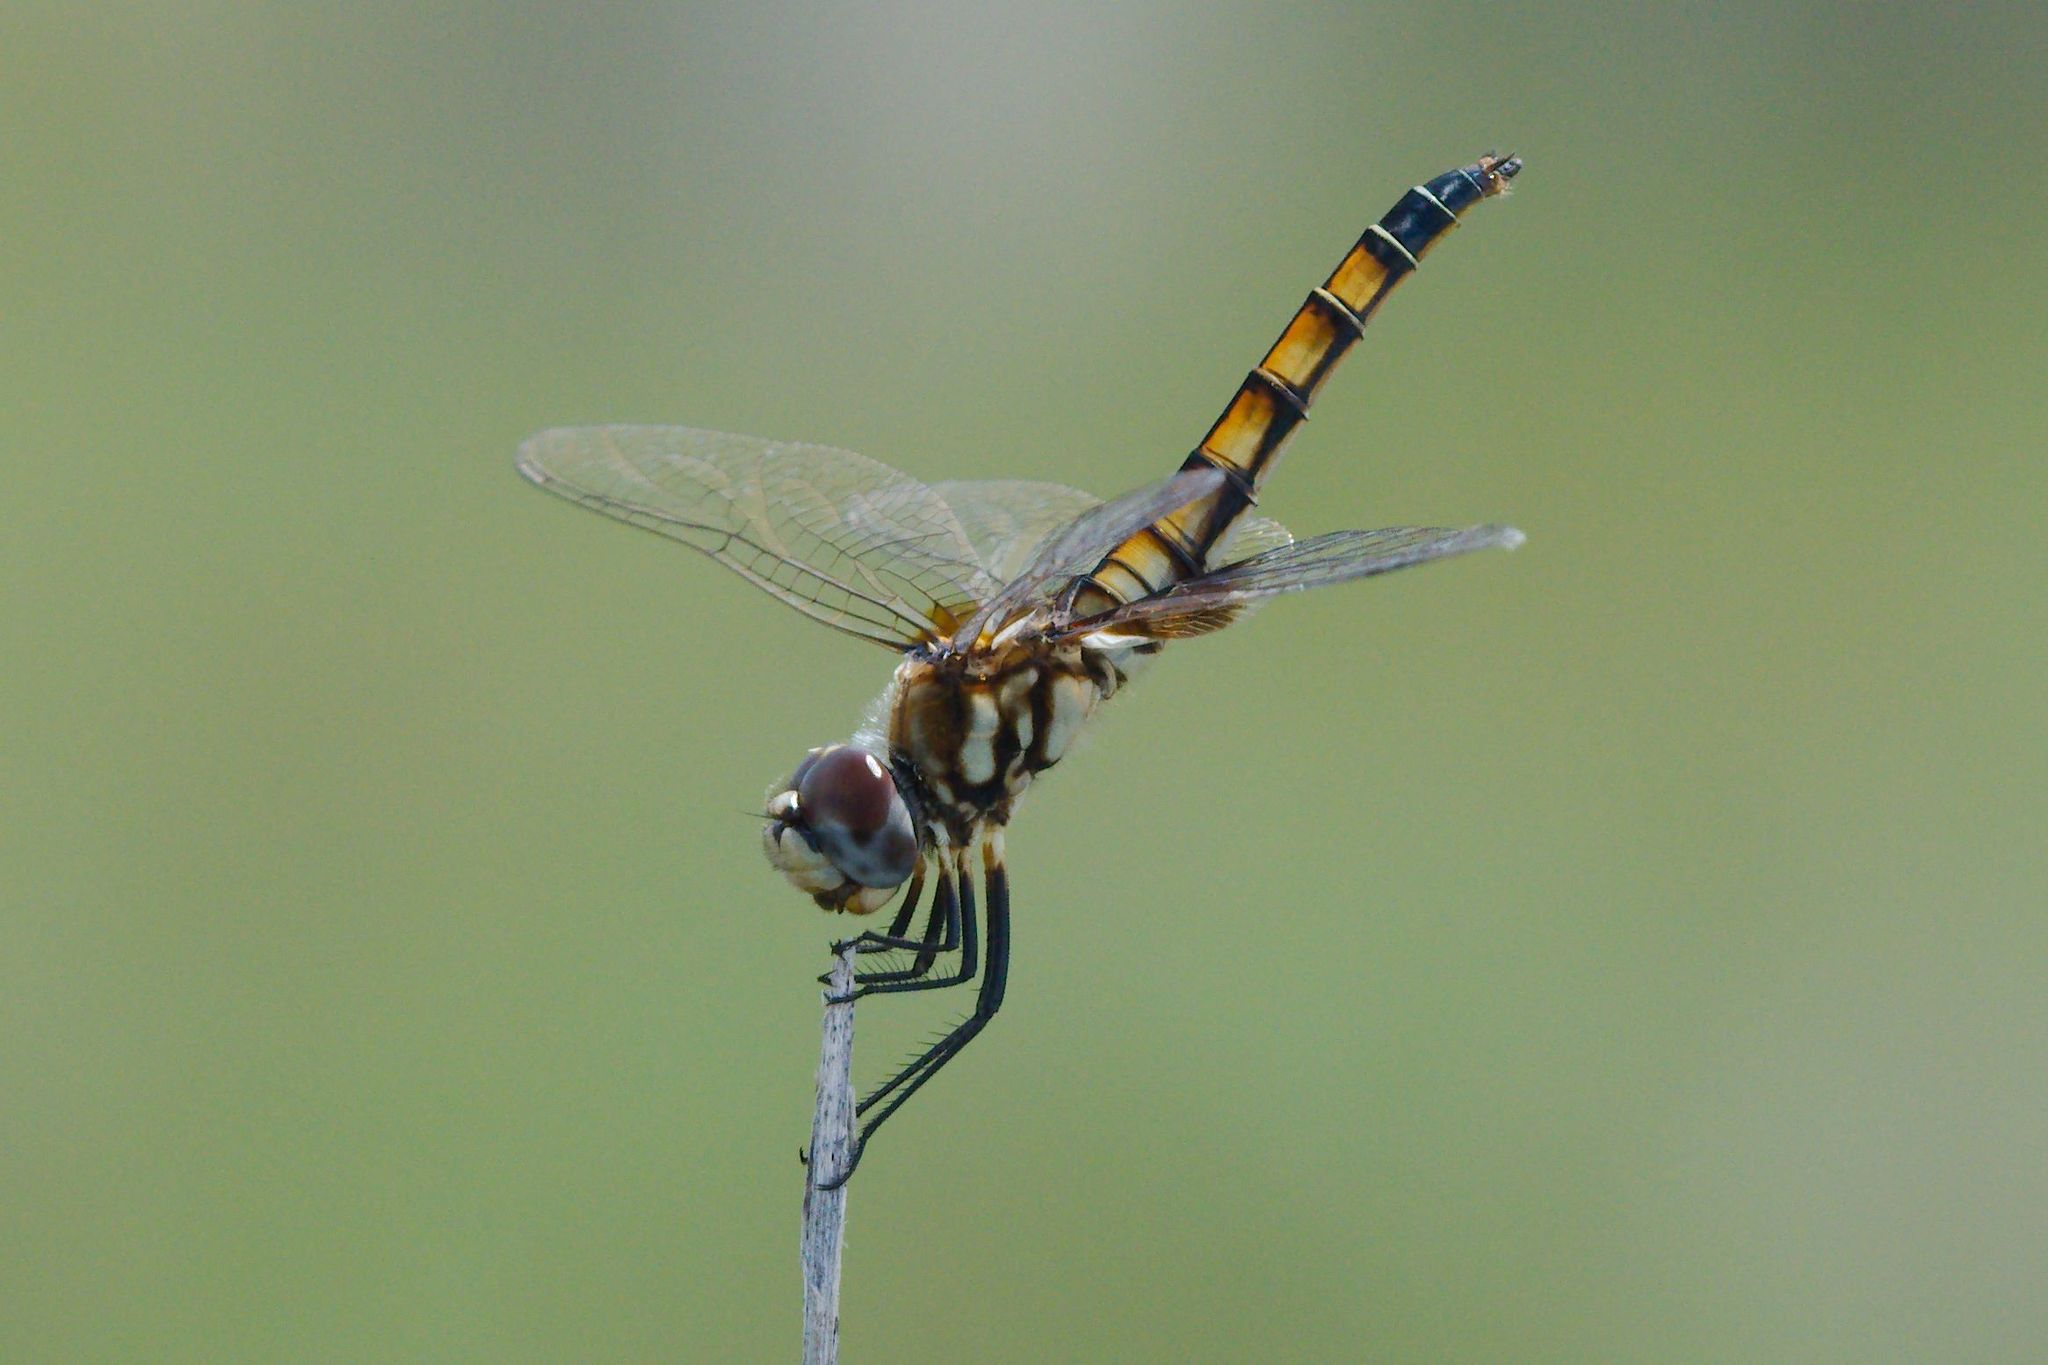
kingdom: Animalia
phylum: Arthropoda
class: Insecta
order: Odonata
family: Libellulidae
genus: Macrodiplax
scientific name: Macrodiplax balteata
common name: Marl pennant
